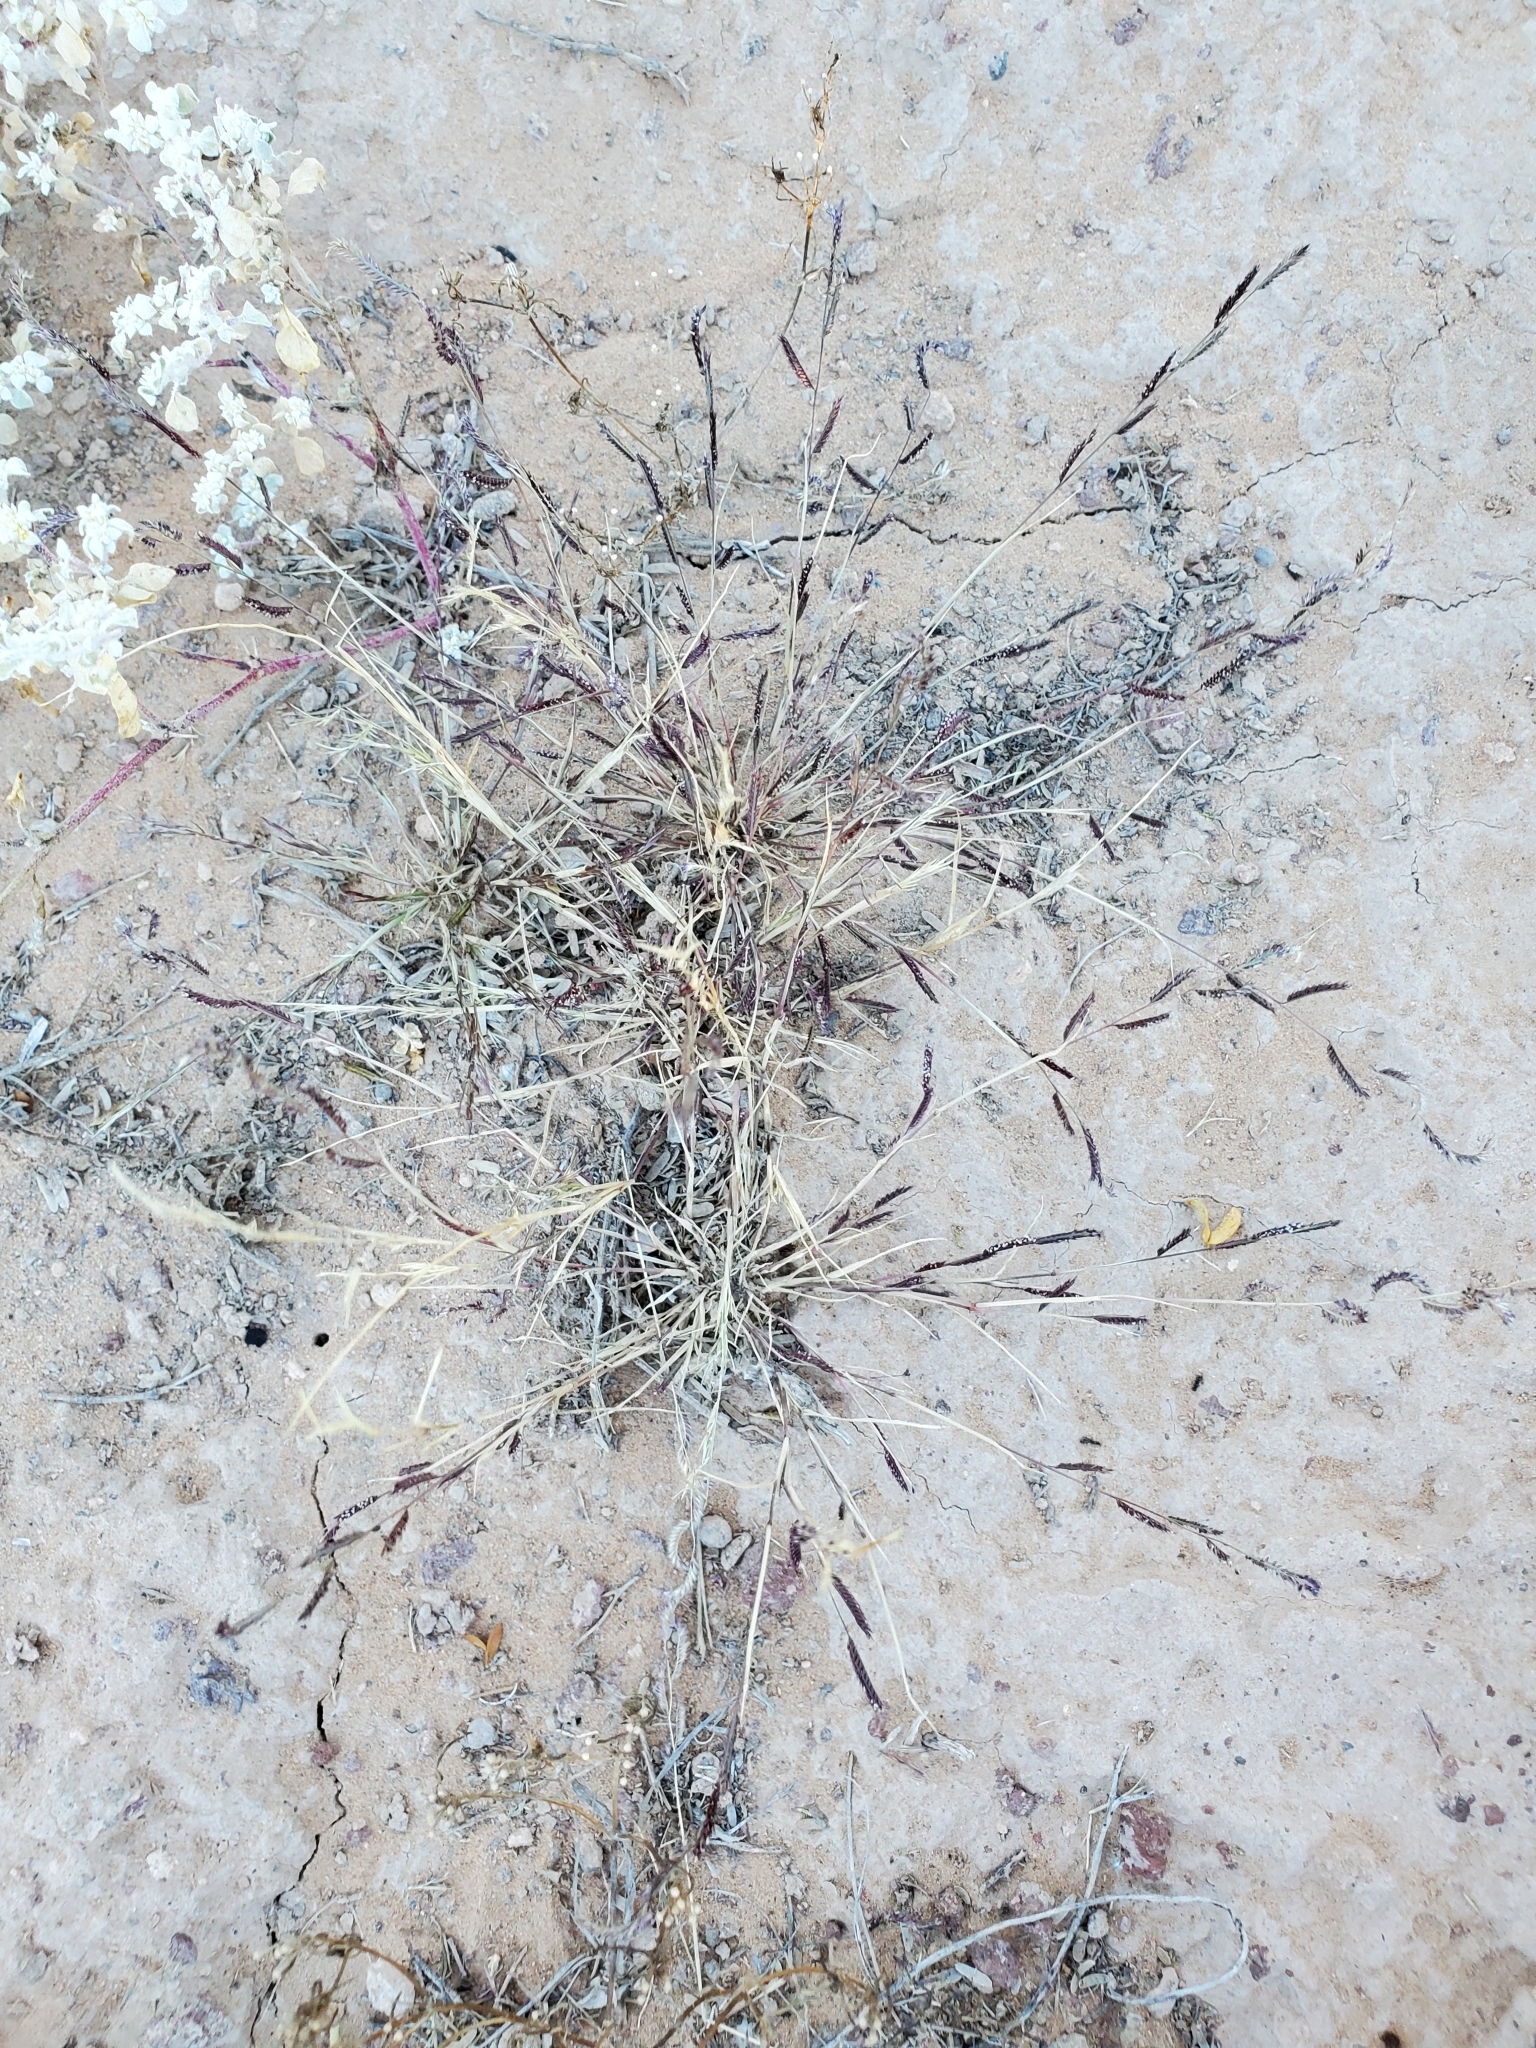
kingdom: Plantae
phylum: Tracheophyta
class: Liliopsida
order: Poales
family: Poaceae
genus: Bouteloua
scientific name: Bouteloua barbata
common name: Six-weeks grama
